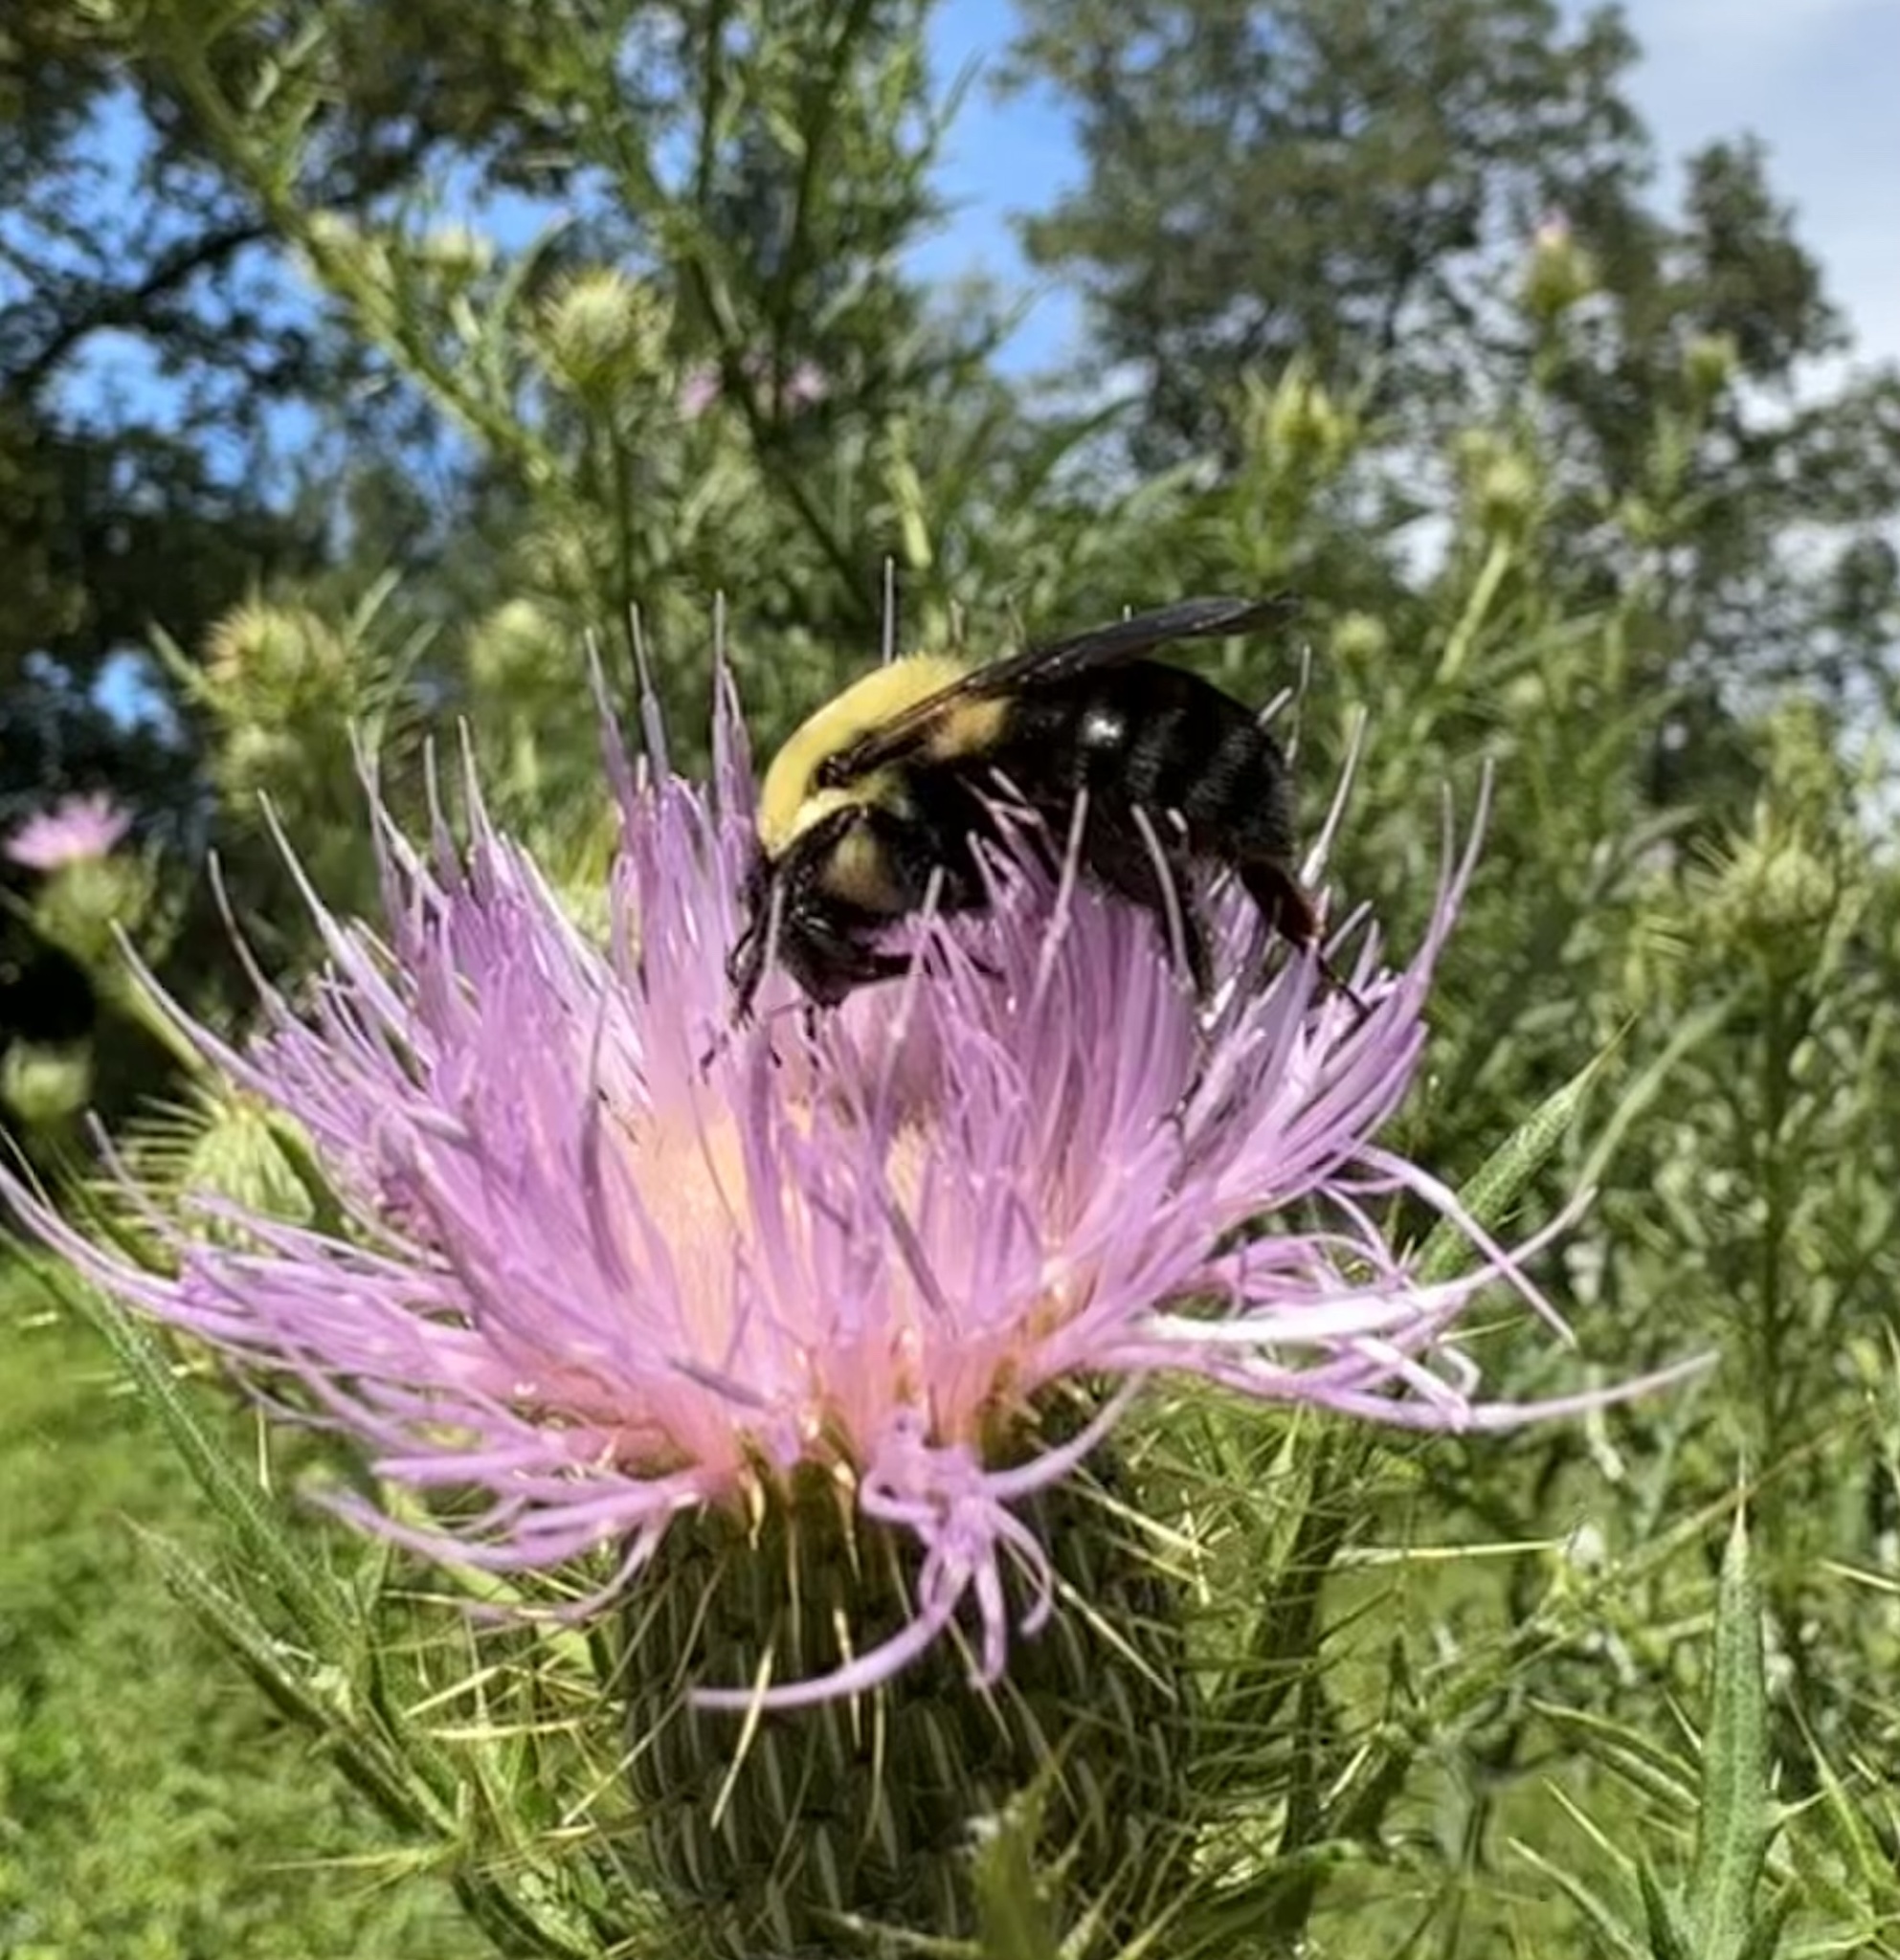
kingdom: Animalia
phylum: Arthropoda
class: Insecta
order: Hymenoptera
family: Apidae
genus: Bombus
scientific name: Bombus impatiens
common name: Common eastern bumble bee
